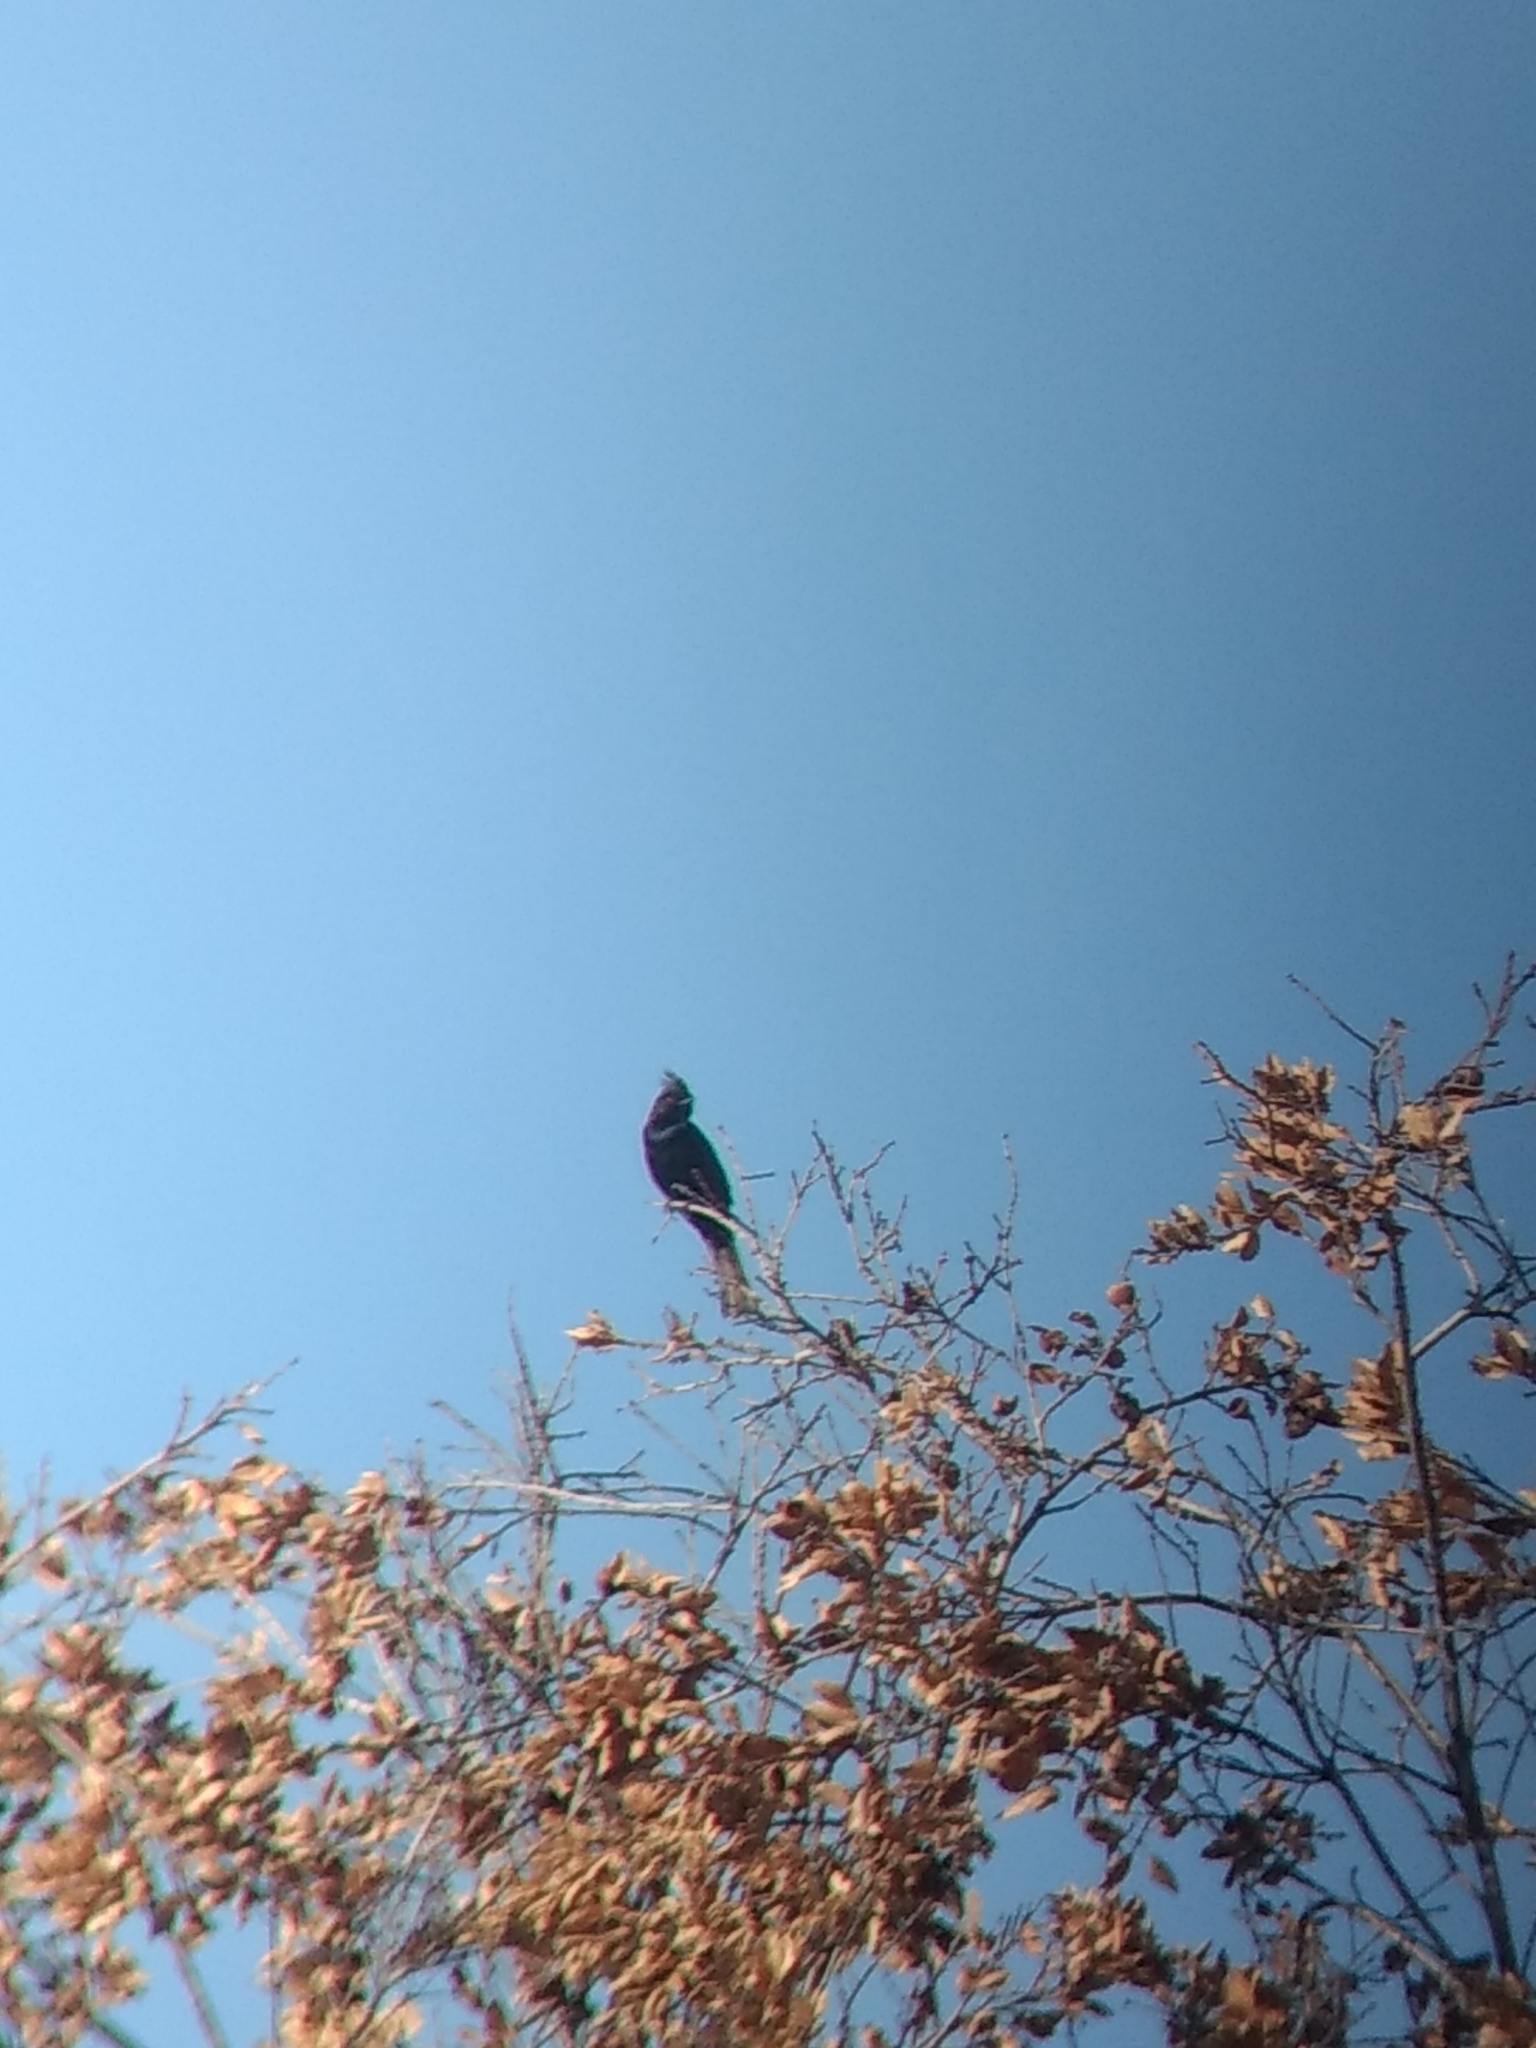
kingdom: Animalia
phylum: Chordata
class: Aves
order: Passeriformes
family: Ptilogonatidae
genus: Phainopepla
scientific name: Phainopepla nitens
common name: Phainopepla
